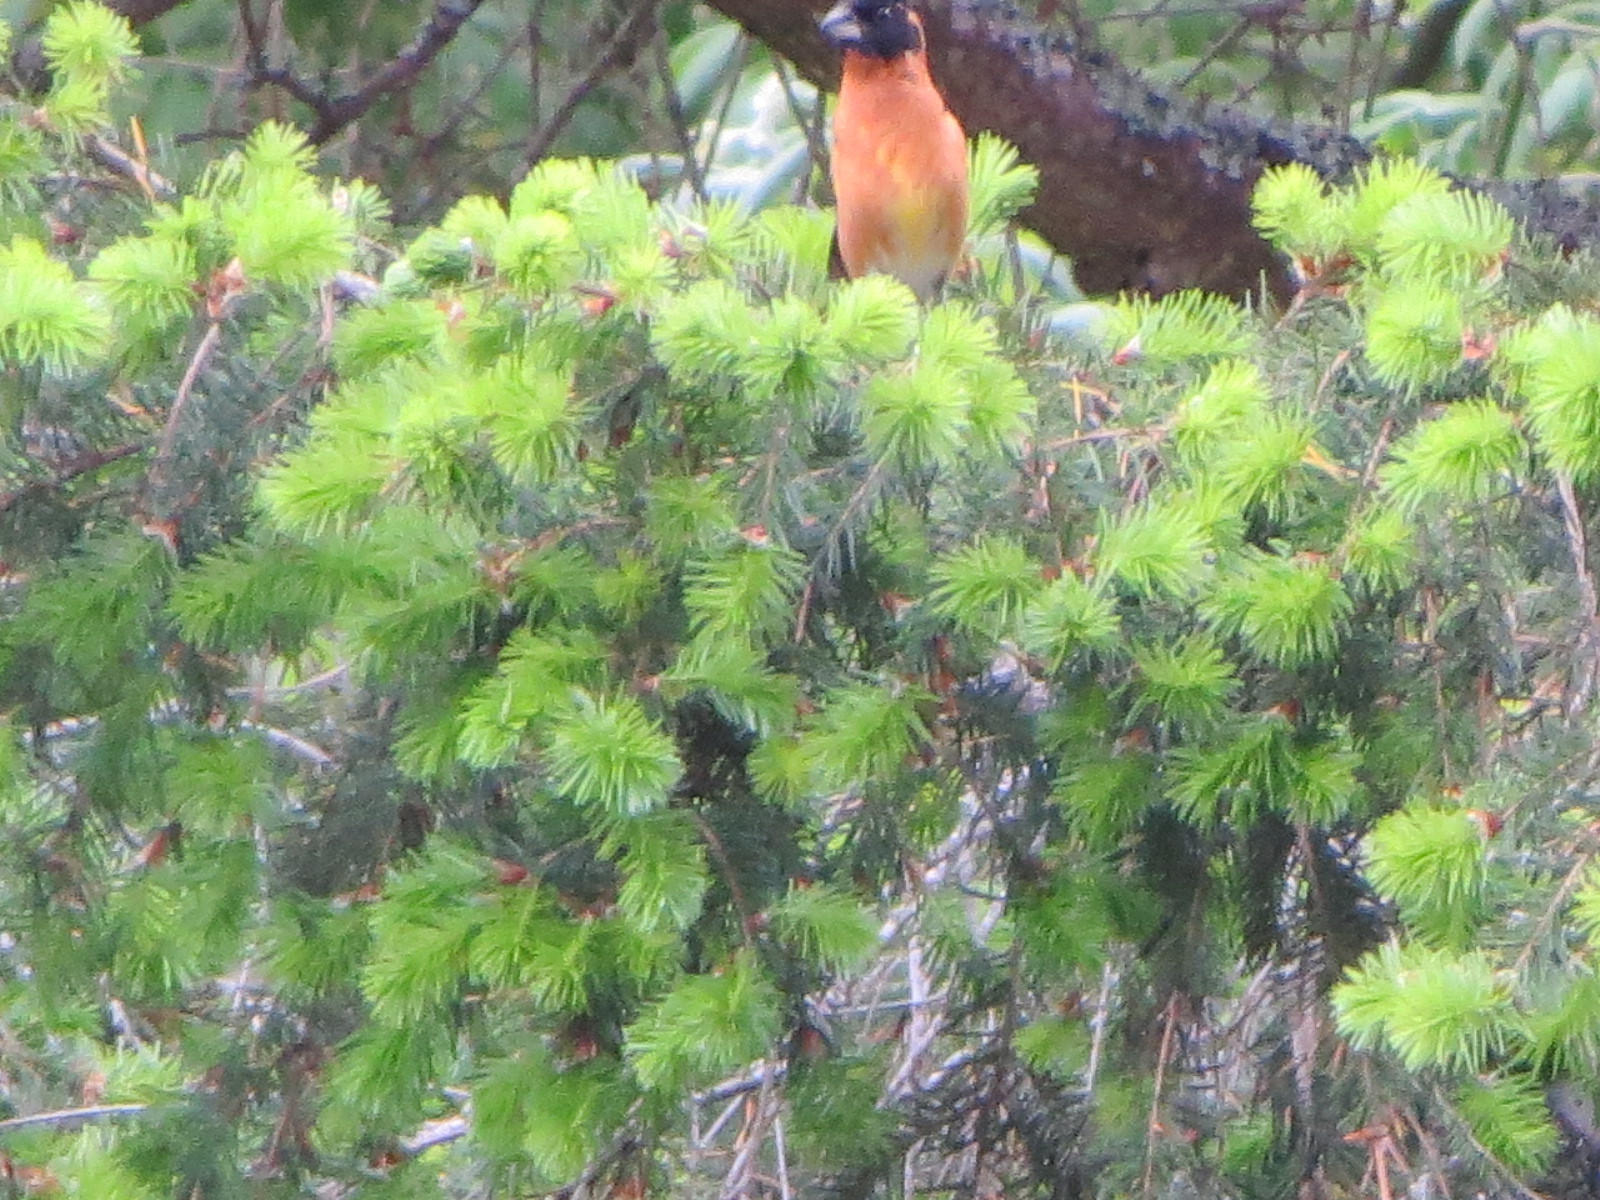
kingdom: Animalia
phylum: Chordata
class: Aves
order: Passeriformes
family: Cardinalidae
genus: Pheucticus
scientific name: Pheucticus melanocephalus
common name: Black-headed grosbeak
